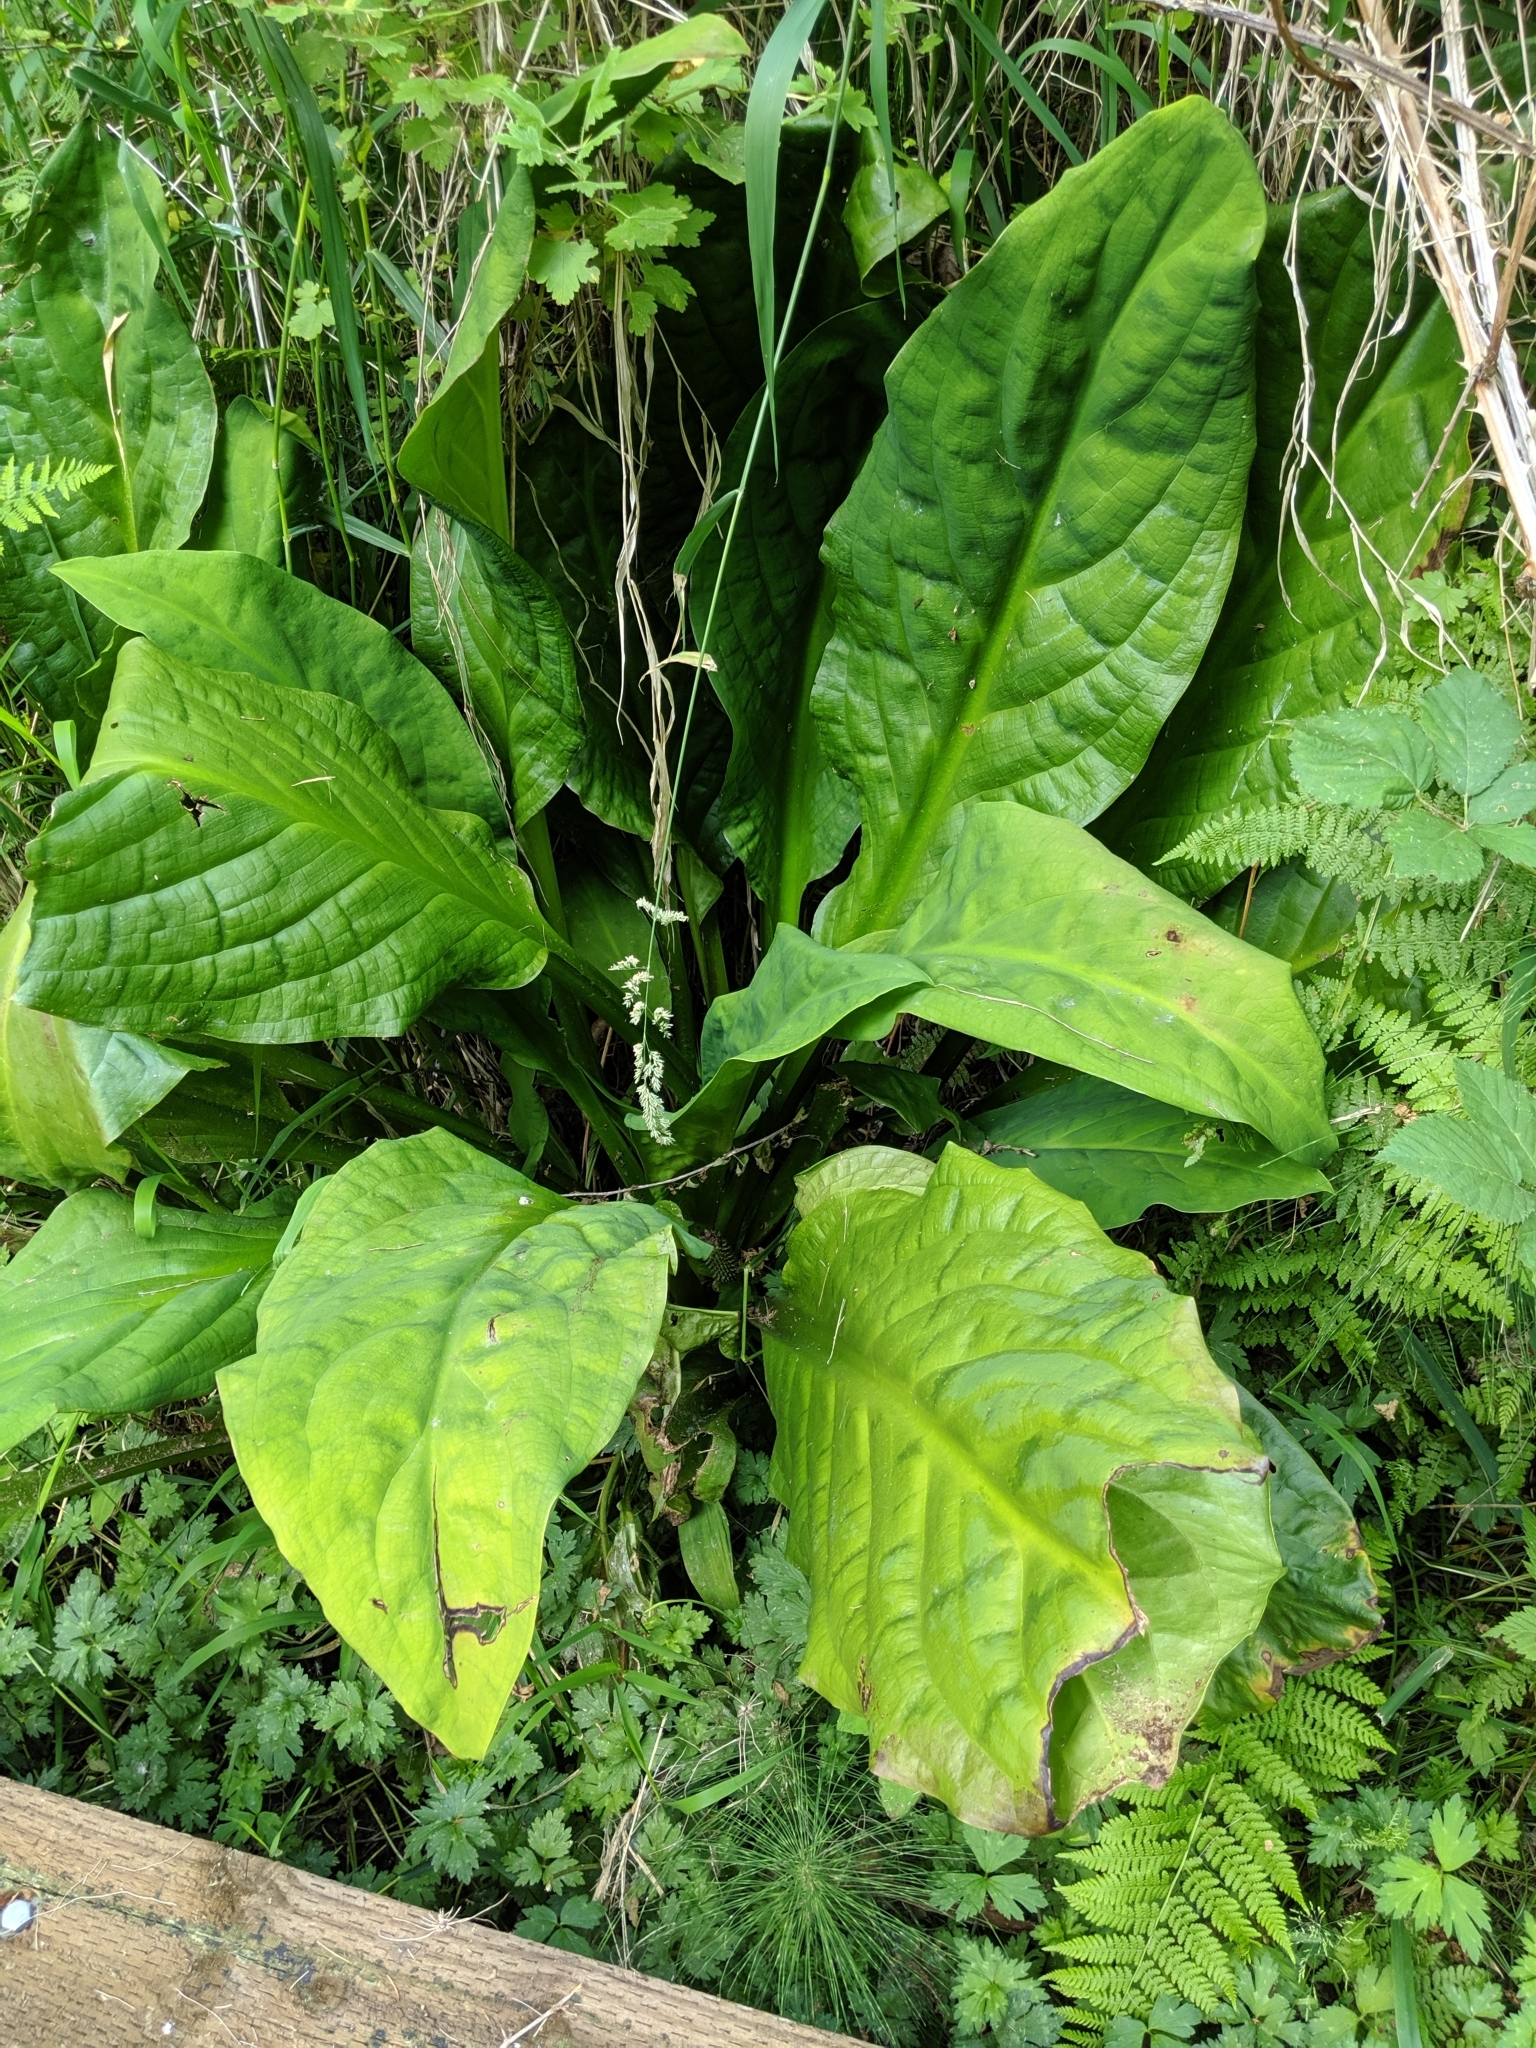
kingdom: Plantae
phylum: Tracheophyta
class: Liliopsida
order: Alismatales
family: Araceae
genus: Lysichiton
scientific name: Lysichiton americanus
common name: American skunk cabbage
